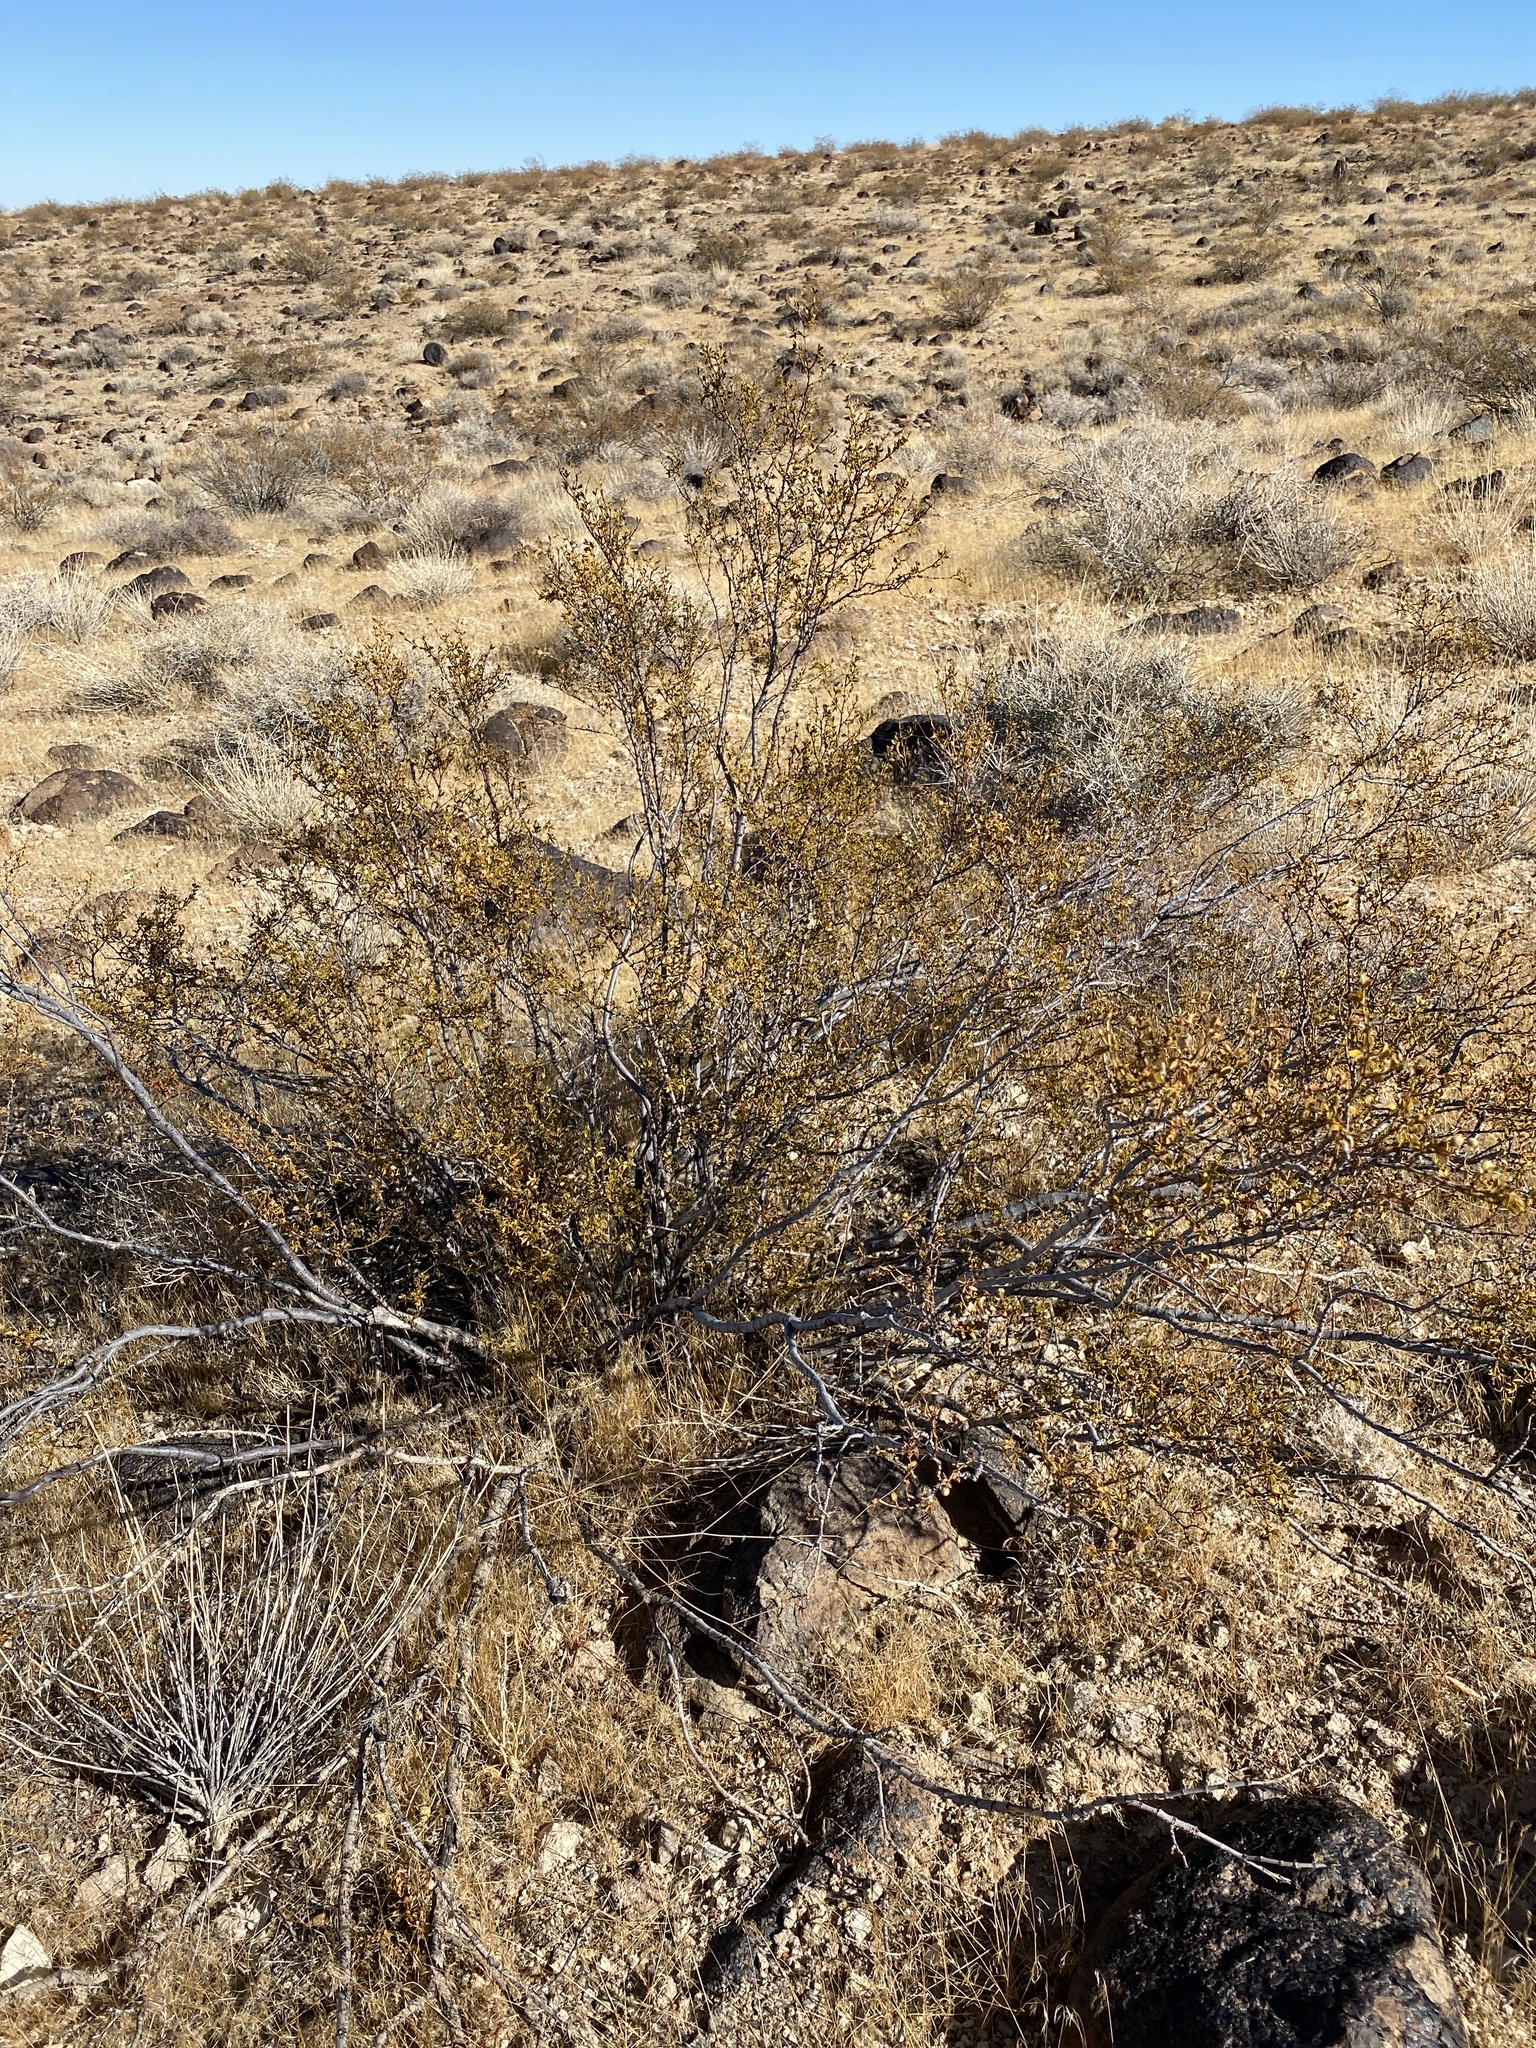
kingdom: Plantae
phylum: Tracheophyta
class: Magnoliopsida
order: Zygophyllales
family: Zygophyllaceae
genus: Larrea
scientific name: Larrea tridentata
